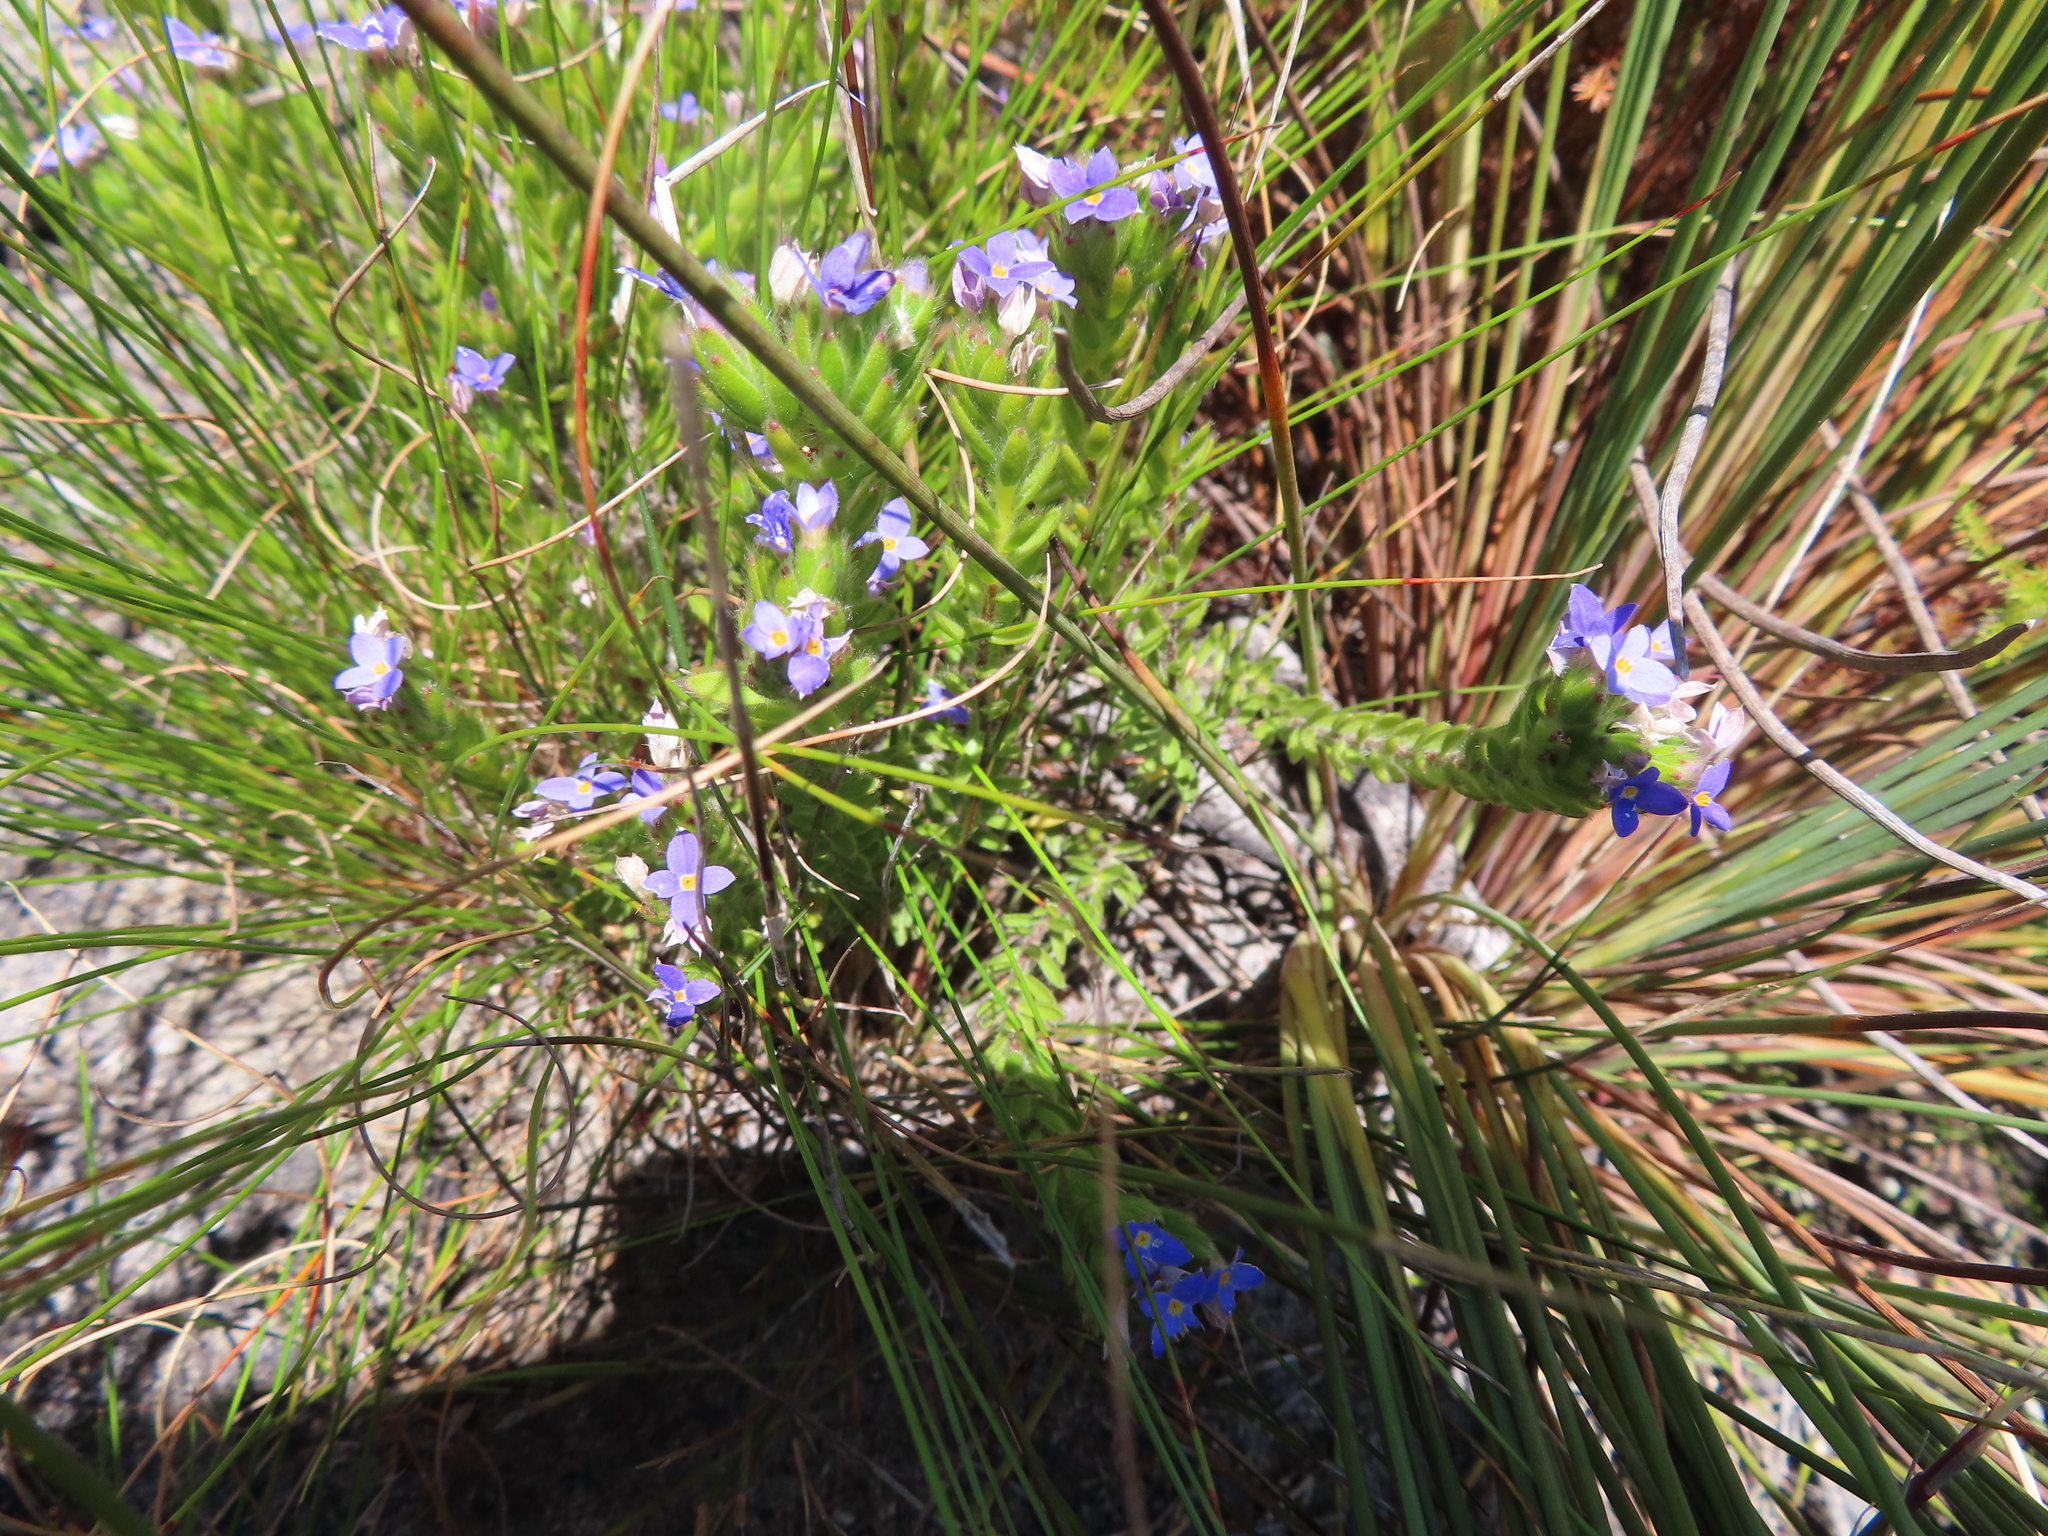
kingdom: Plantae
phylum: Tracheophyta
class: Magnoliopsida
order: Malvales
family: Thymelaeaceae
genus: Gnidia
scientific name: Gnidia penicillata
